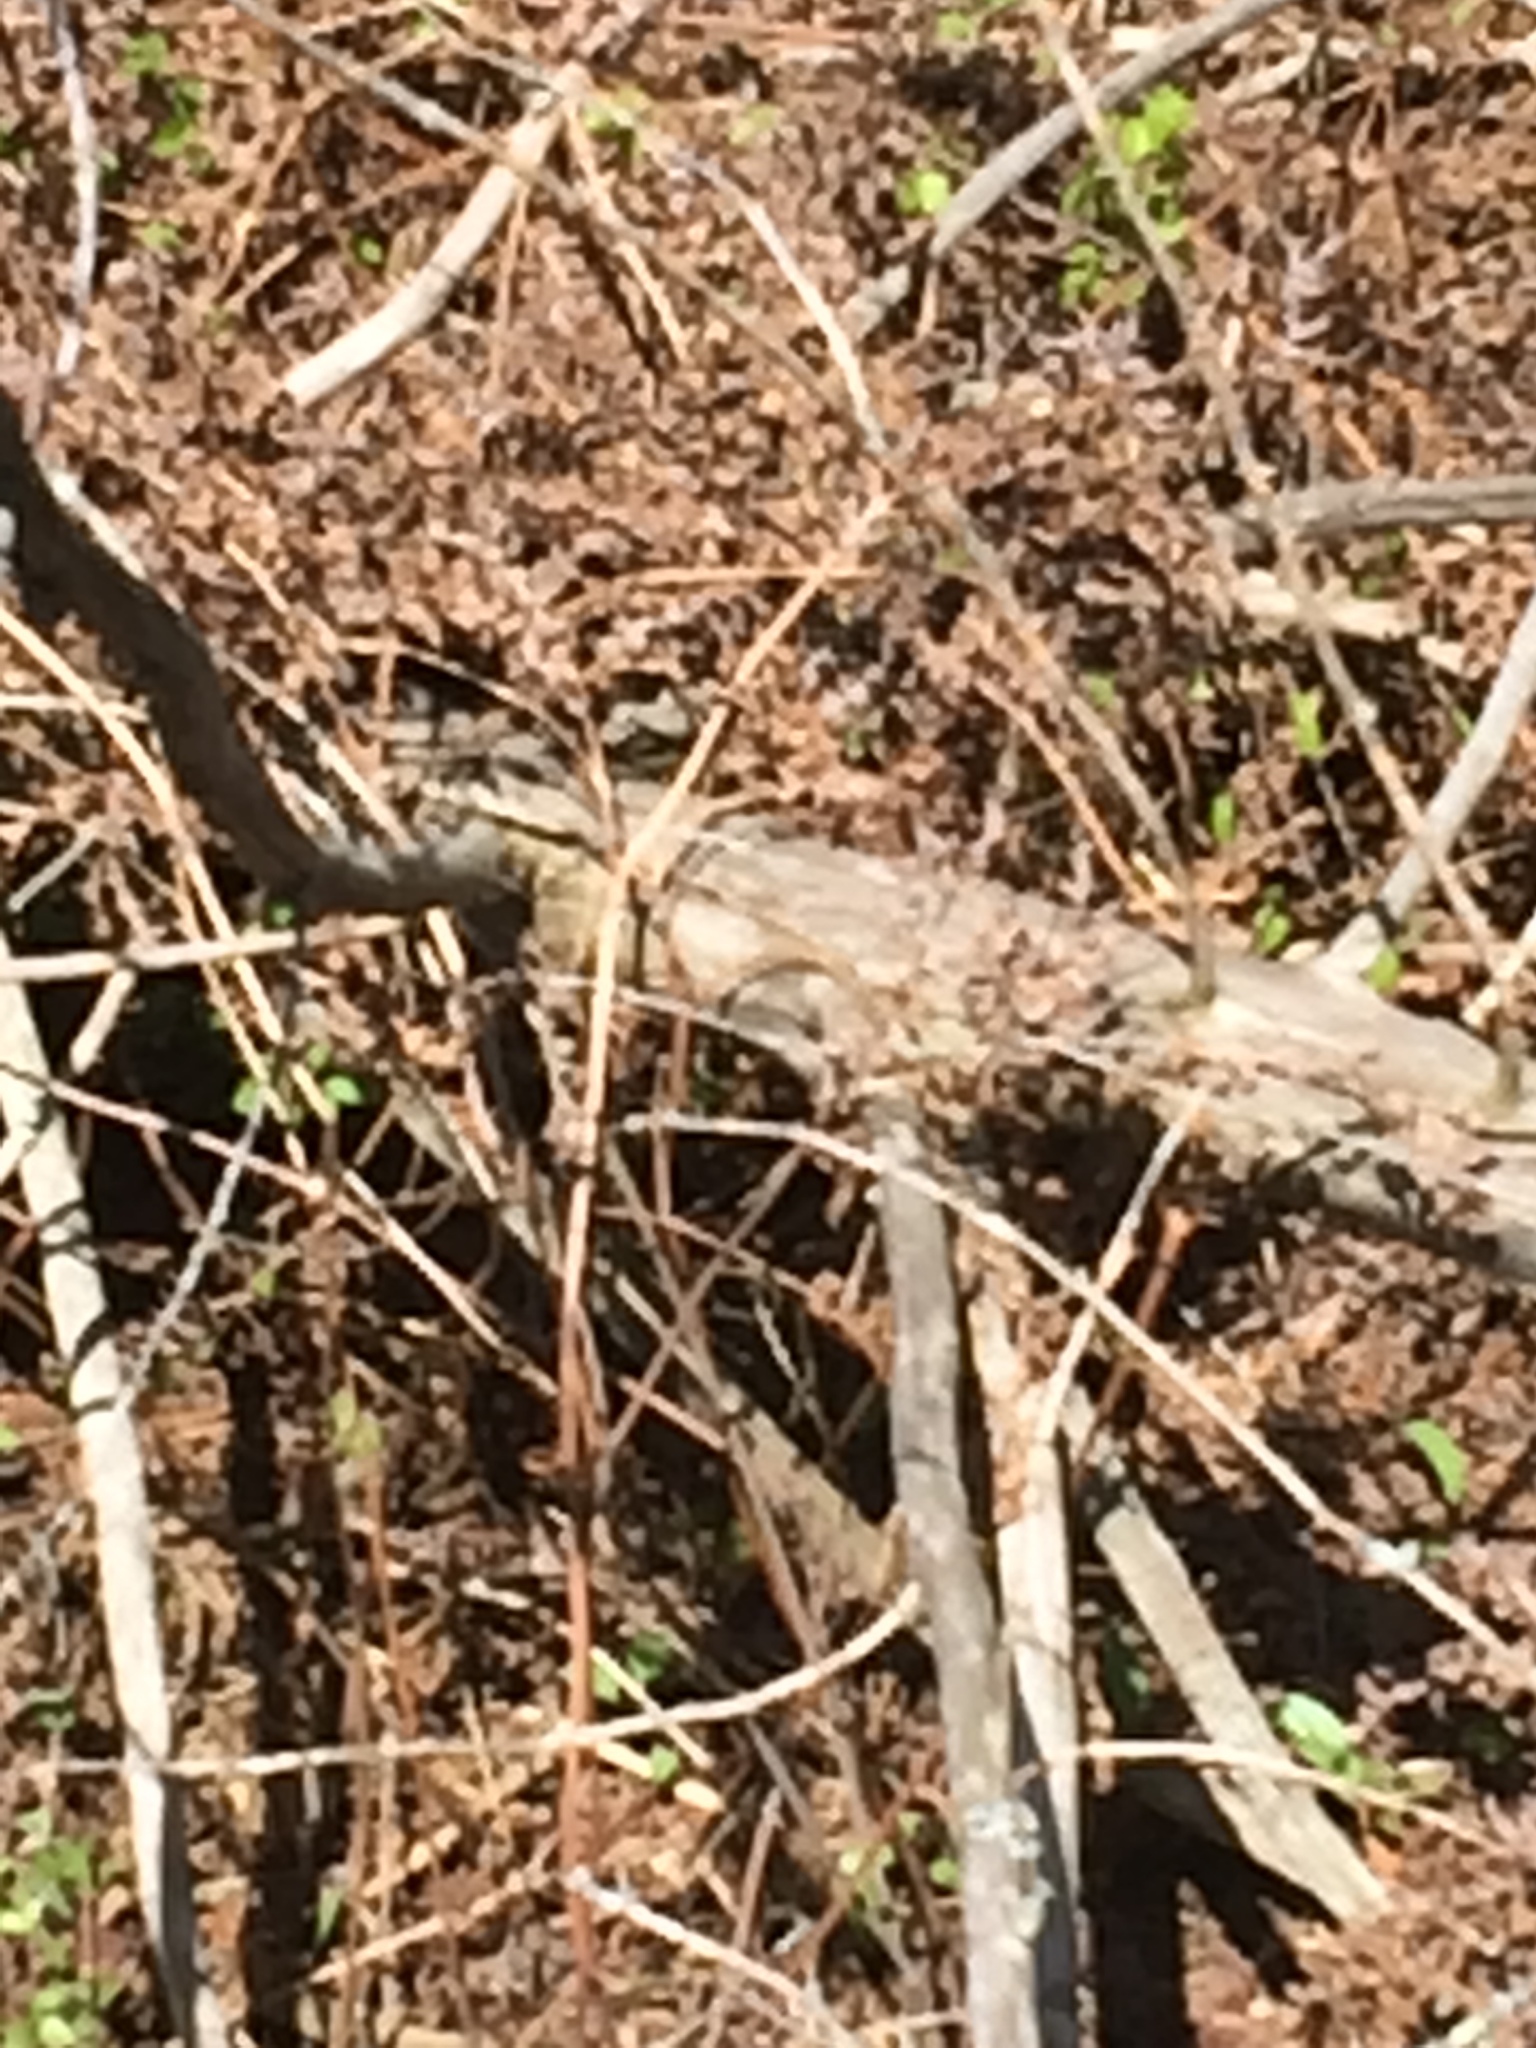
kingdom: Plantae
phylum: Tracheophyta
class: Polypodiopsida
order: Polypodiales
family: Dennstaedtiaceae
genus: Pteridium
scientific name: Pteridium aquilinum
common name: Bracken
